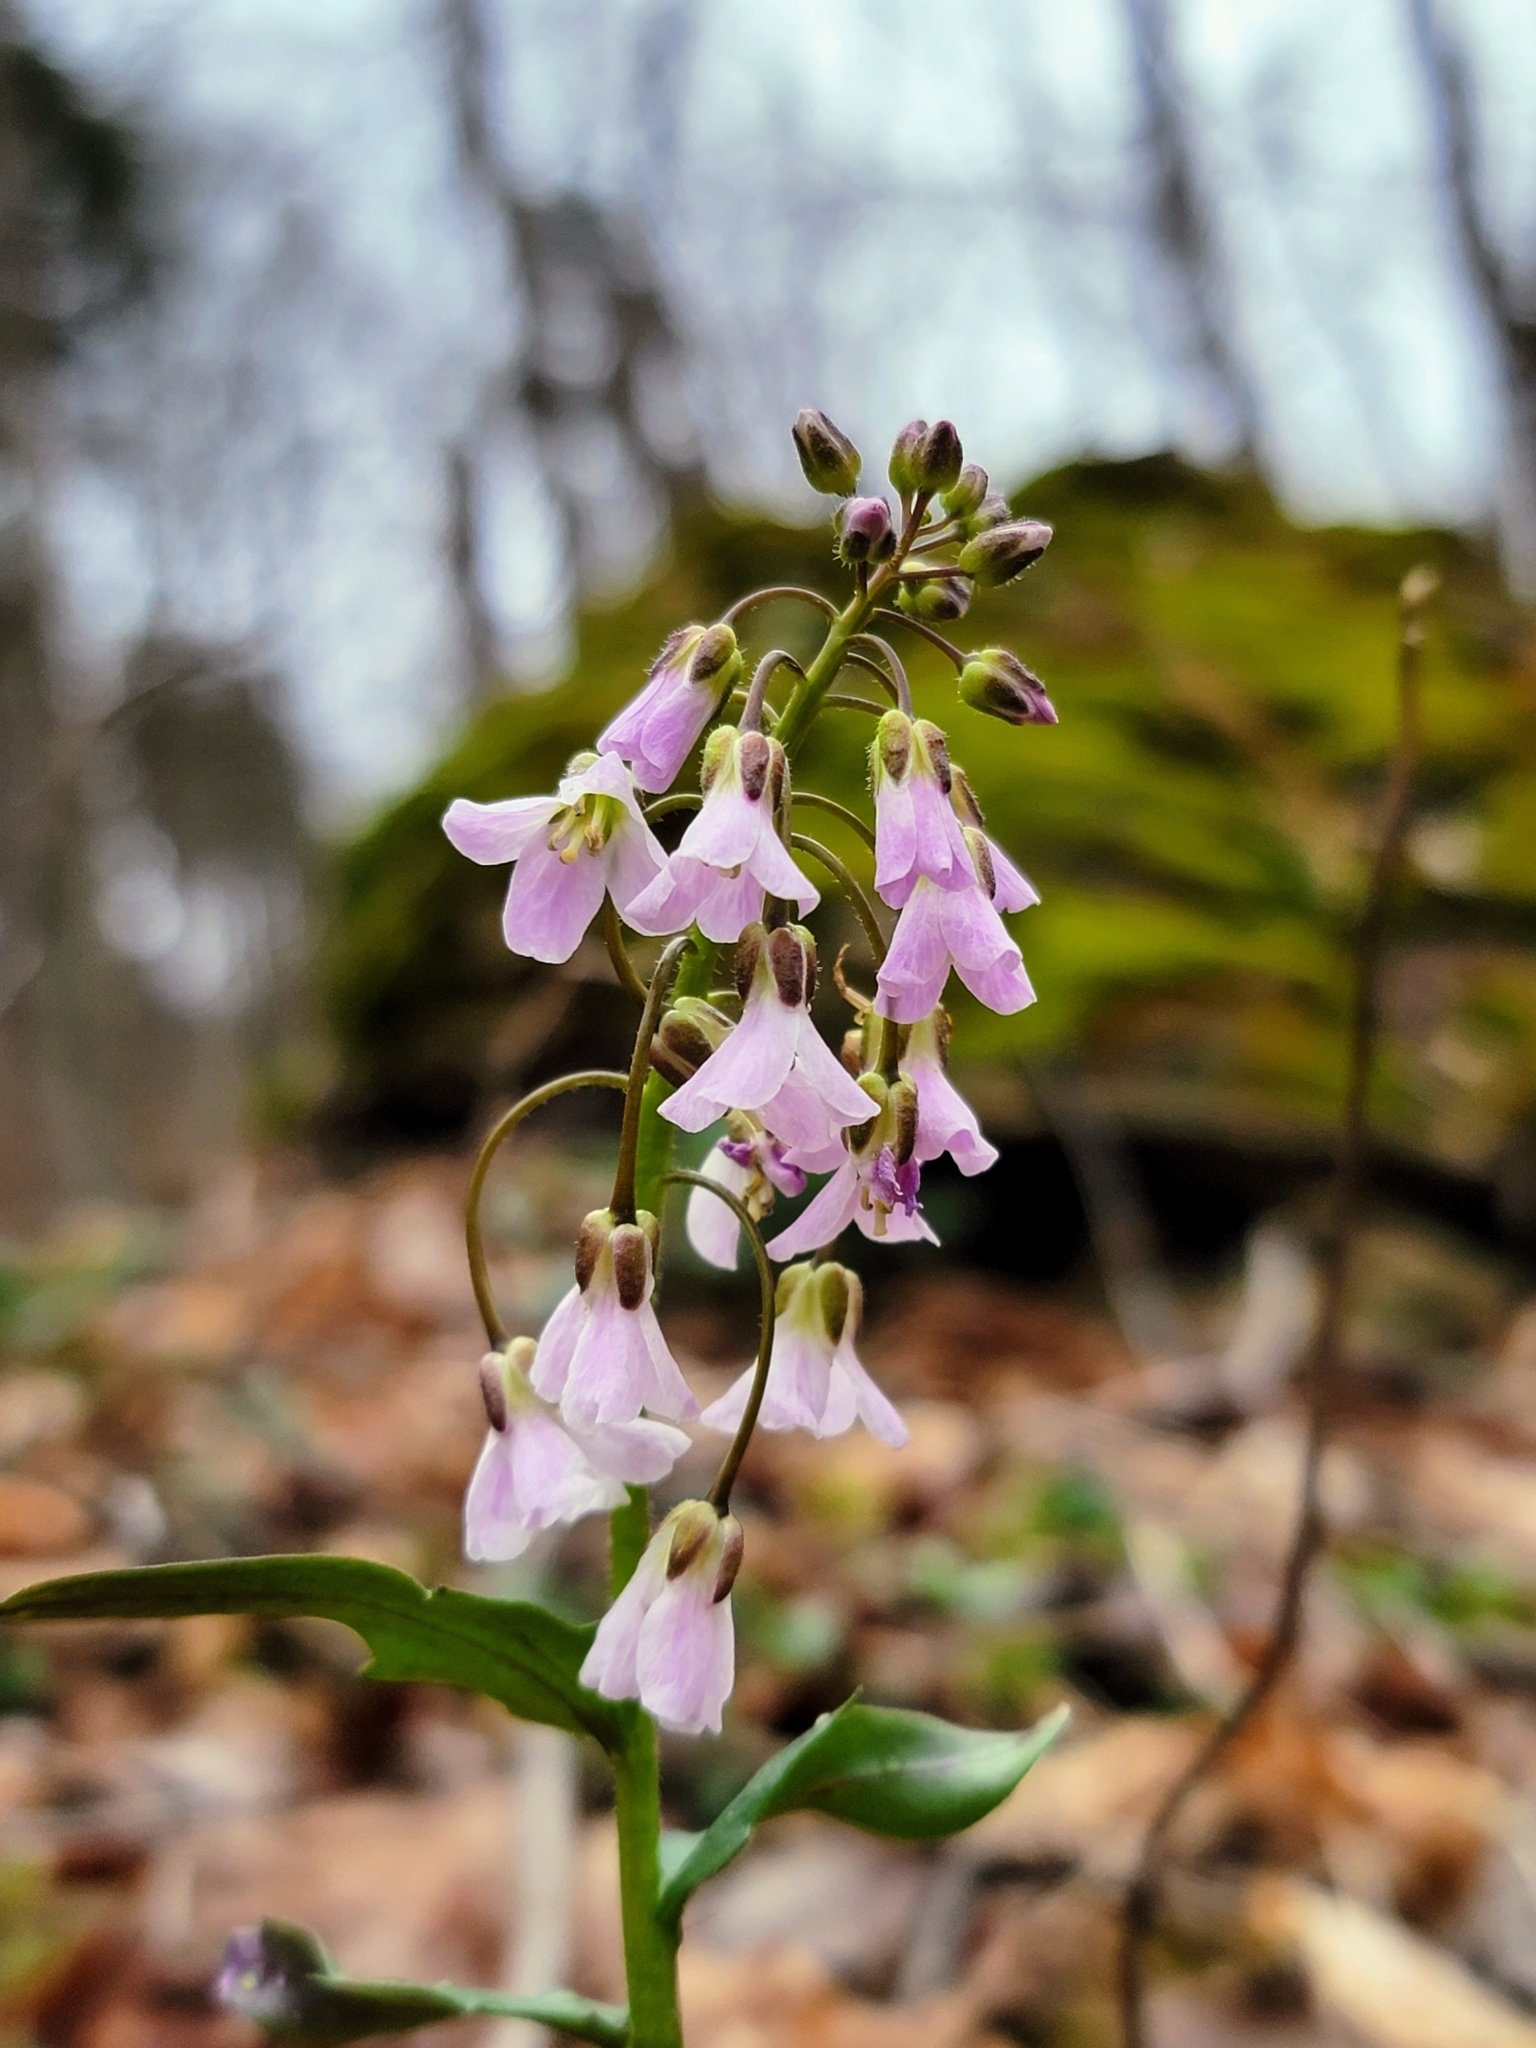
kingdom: Plantae
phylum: Tracheophyta
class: Magnoliopsida
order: Brassicales
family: Brassicaceae
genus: Cardamine
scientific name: Cardamine douglassii
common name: Purple cress
